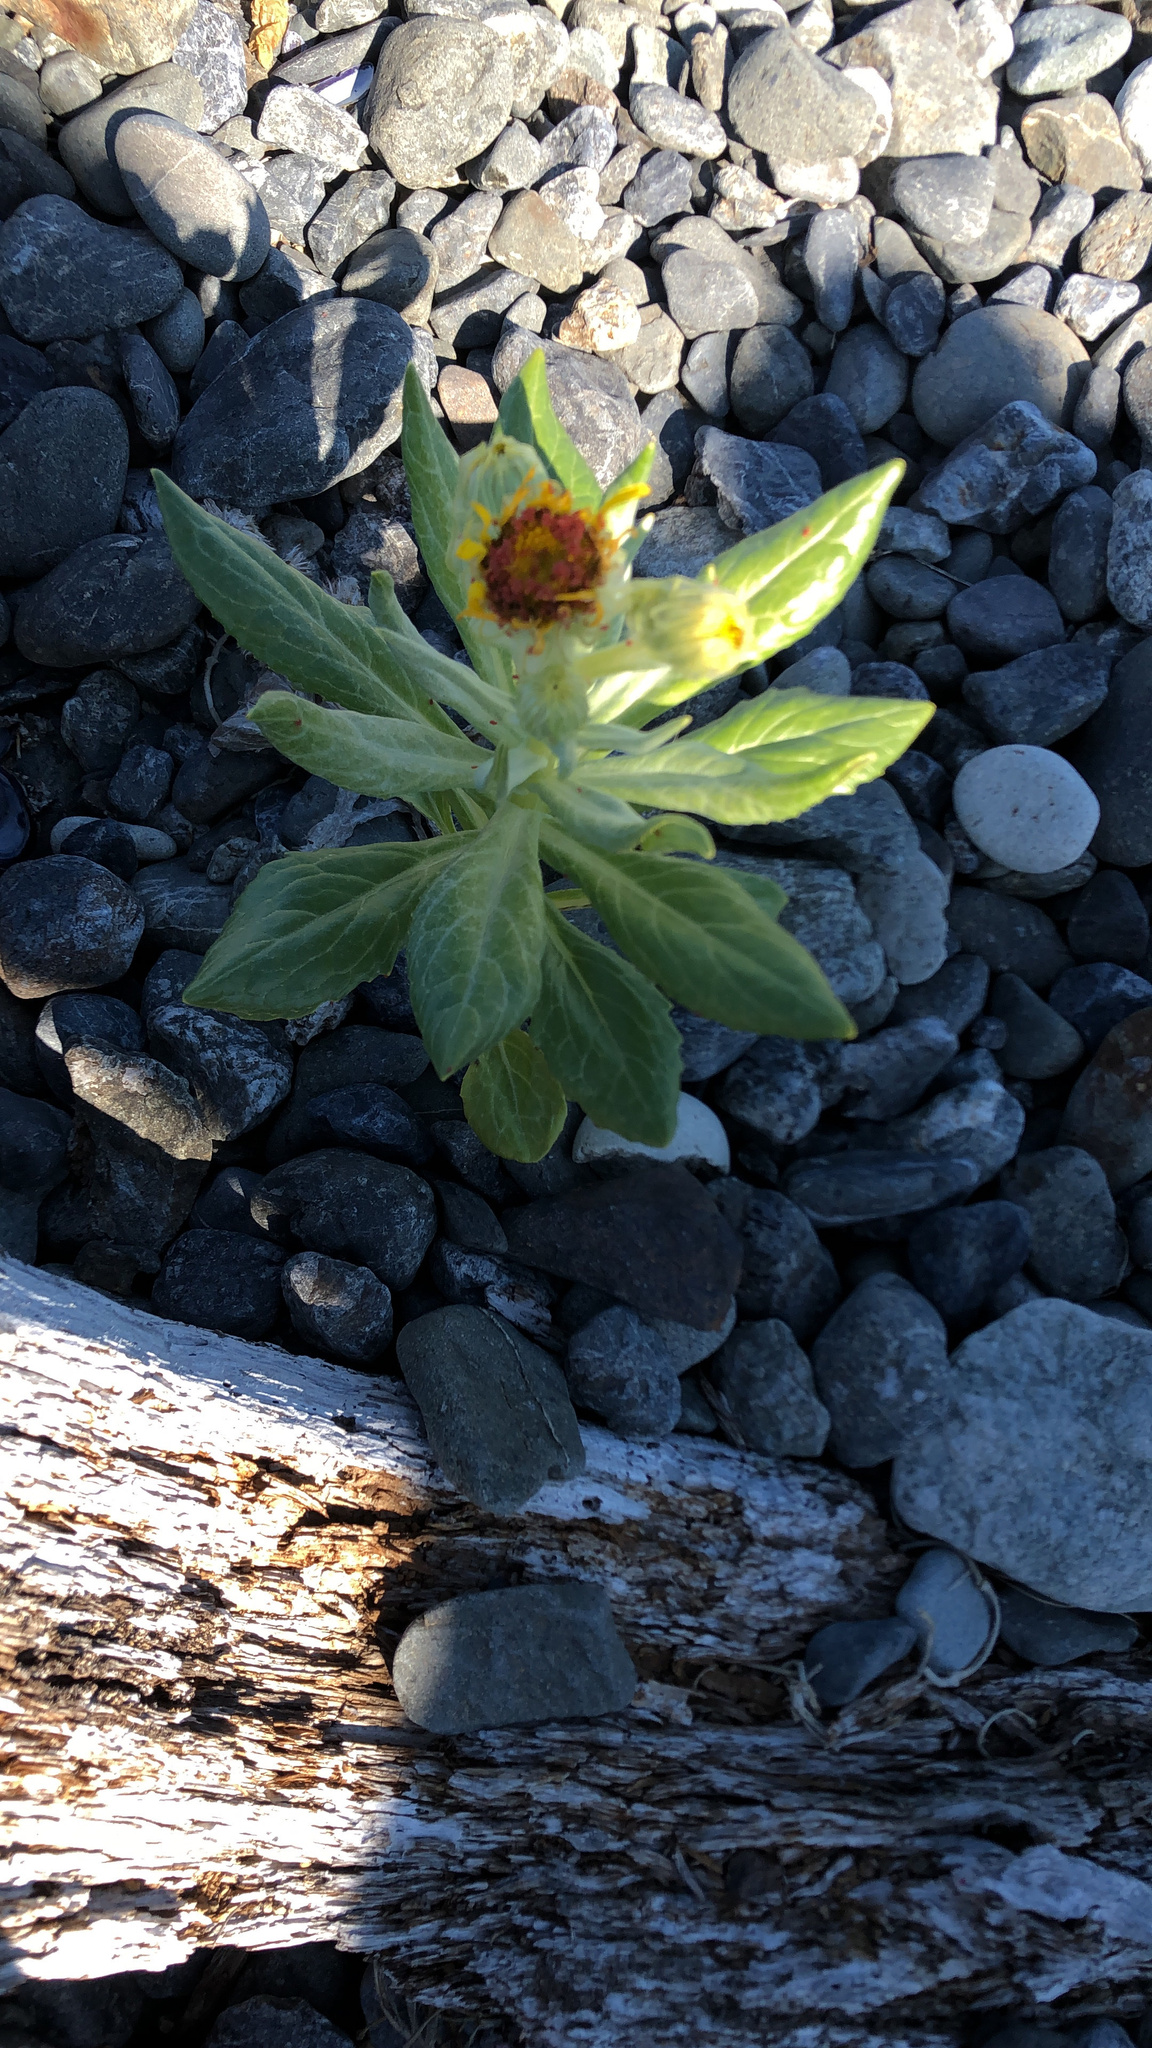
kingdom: Plantae
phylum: Tracheophyta
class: Magnoliopsida
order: Asterales
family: Asteraceae
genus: Jacobaea
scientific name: Jacobaea pseudoarnica
